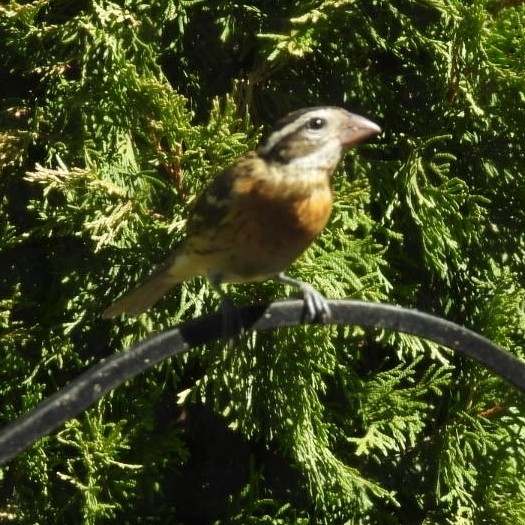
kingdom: Animalia
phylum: Chordata
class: Aves
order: Passeriformes
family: Cardinalidae
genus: Pheucticus
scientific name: Pheucticus melanocephalus
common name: Black-headed grosbeak
